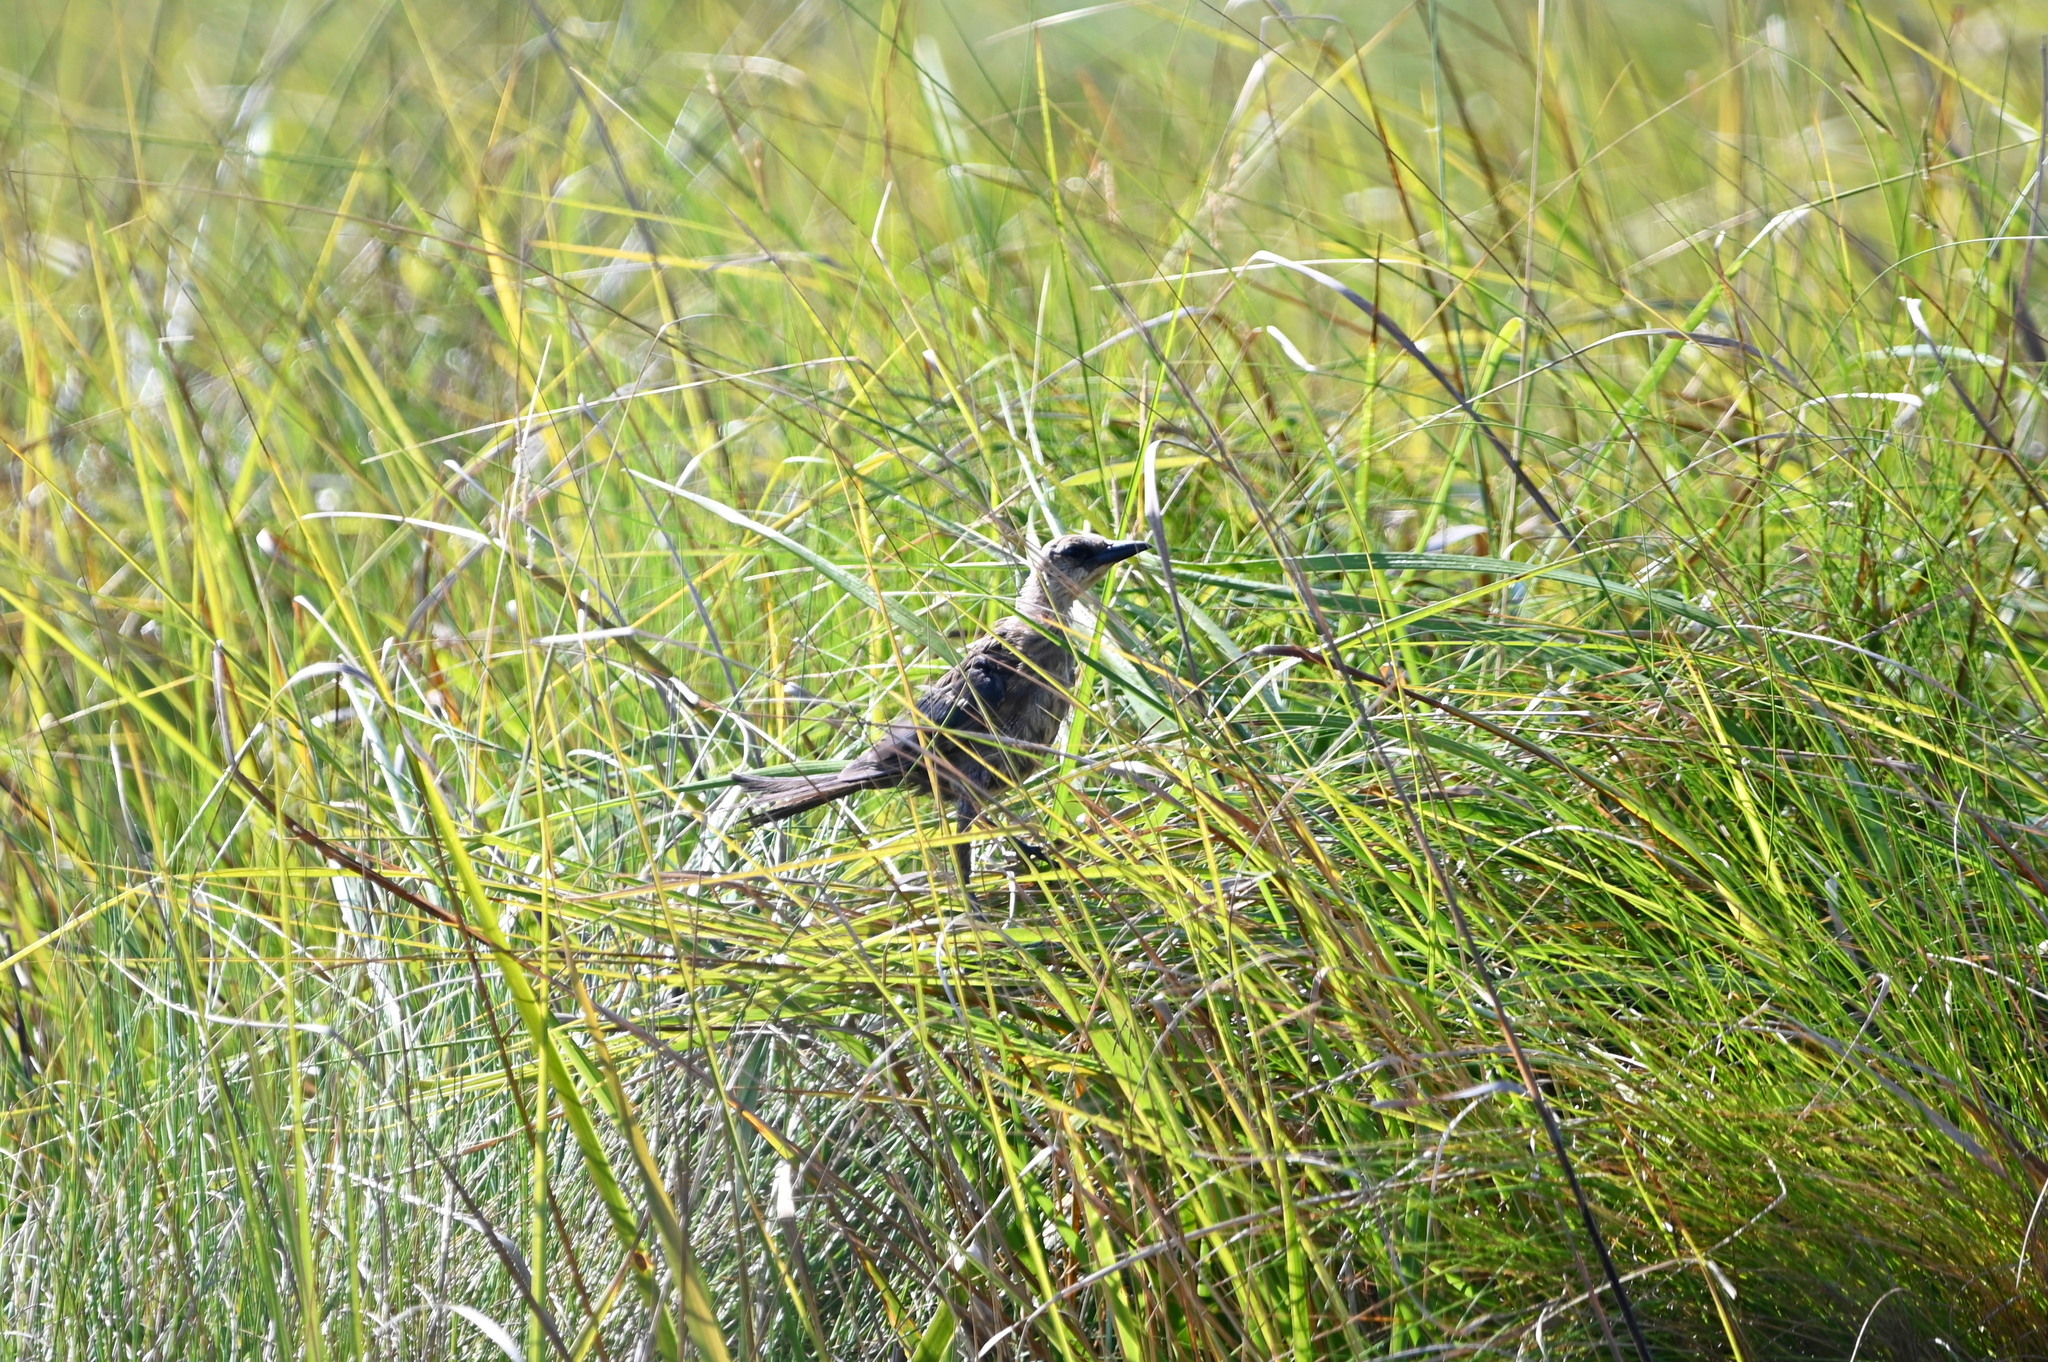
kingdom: Animalia
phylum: Chordata
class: Aves
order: Passeriformes
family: Icteridae
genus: Quiscalus
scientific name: Quiscalus
